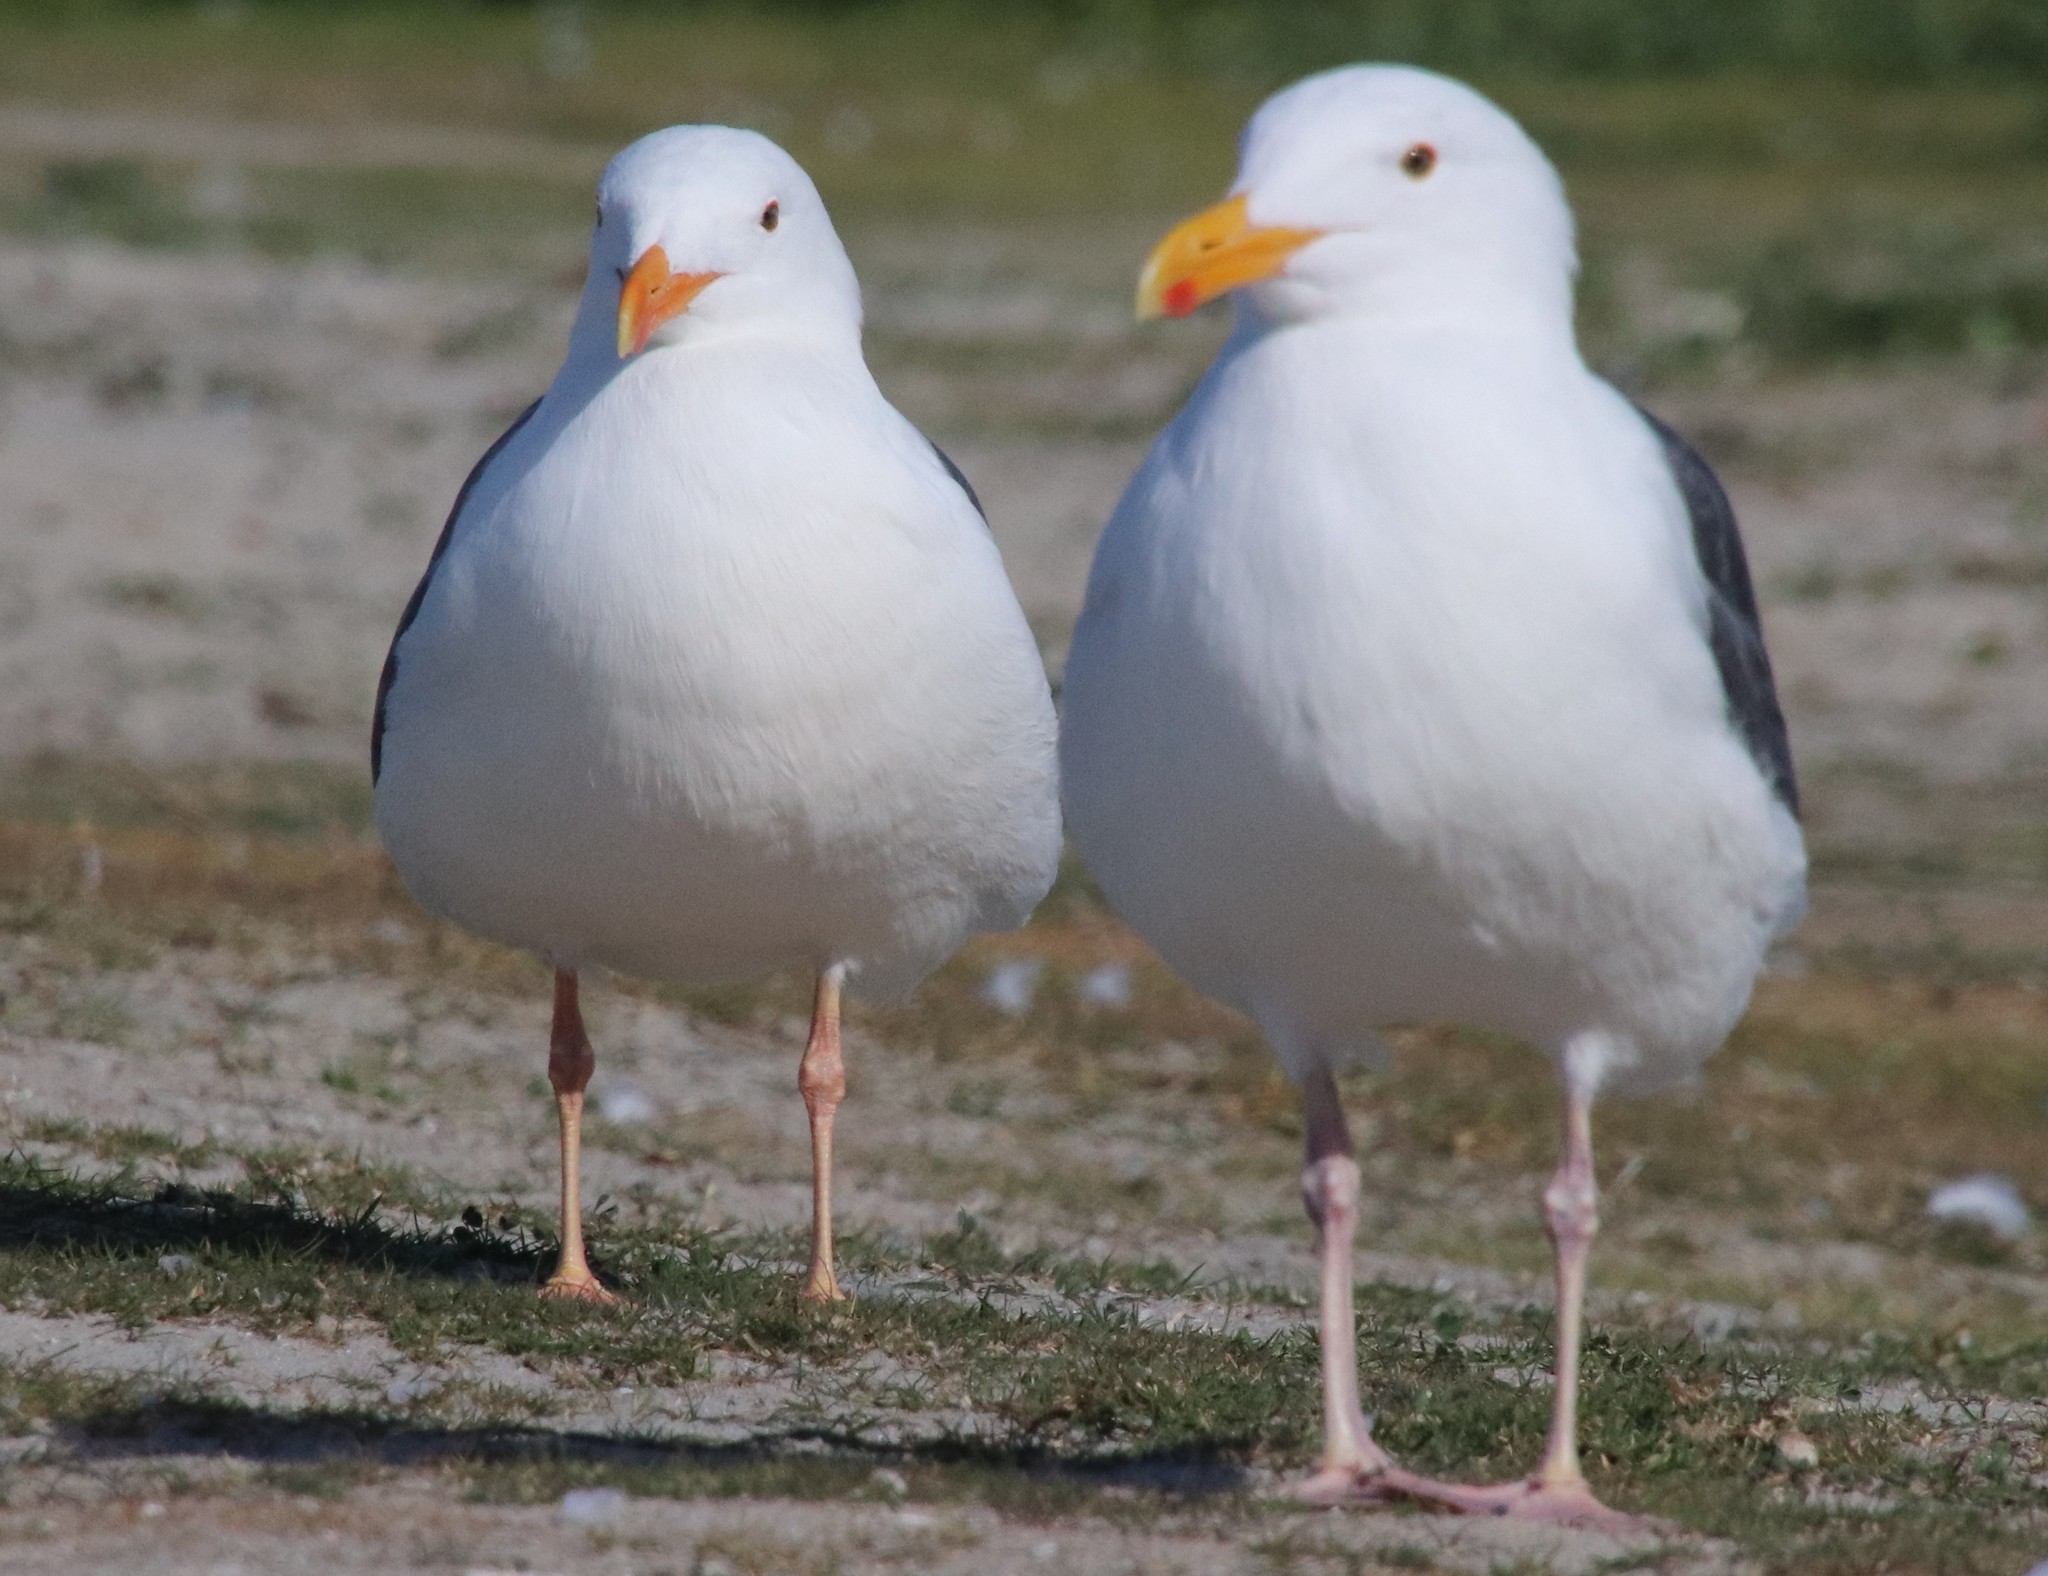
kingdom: Animalia
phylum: Chordata
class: Aves
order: Charadriiformes
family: Laridae
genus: Larus
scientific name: Larus occidentalis
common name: Western gull
